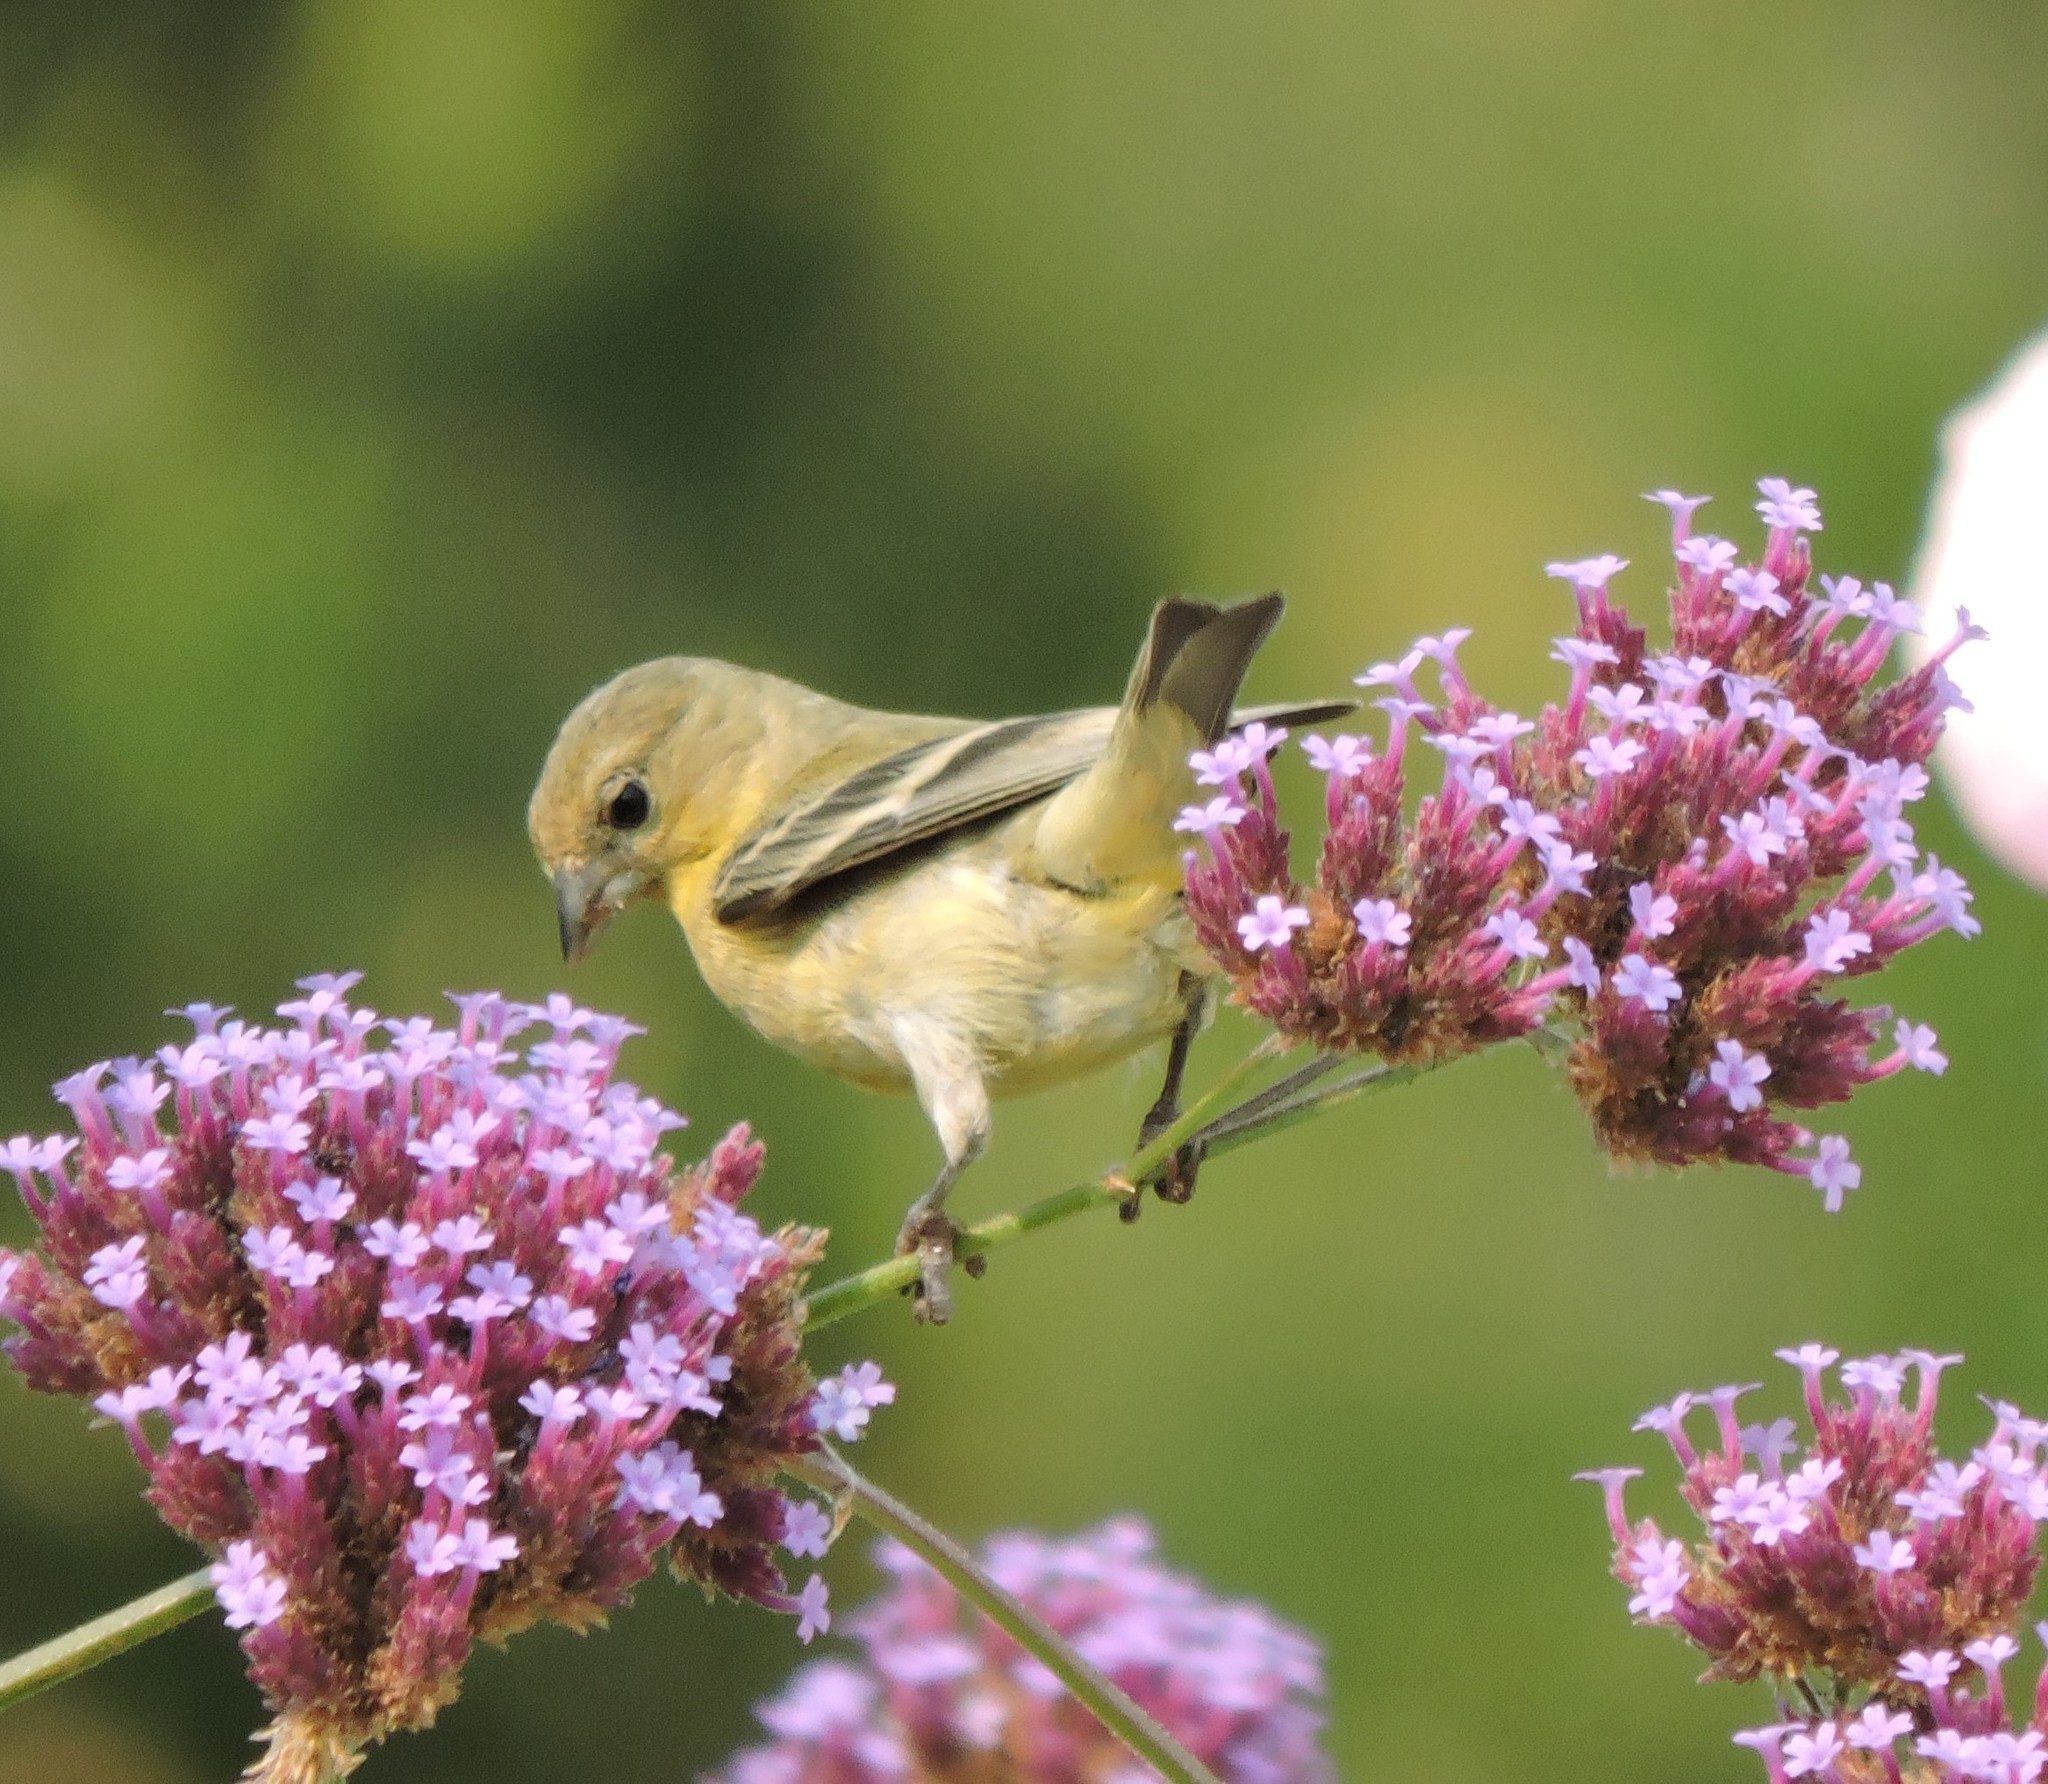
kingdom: Animalia
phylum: Chordata
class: Aves
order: Passeriformes
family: Fringillidae
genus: Spinus
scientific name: Spinus psaltria
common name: Lesser goldfinch
